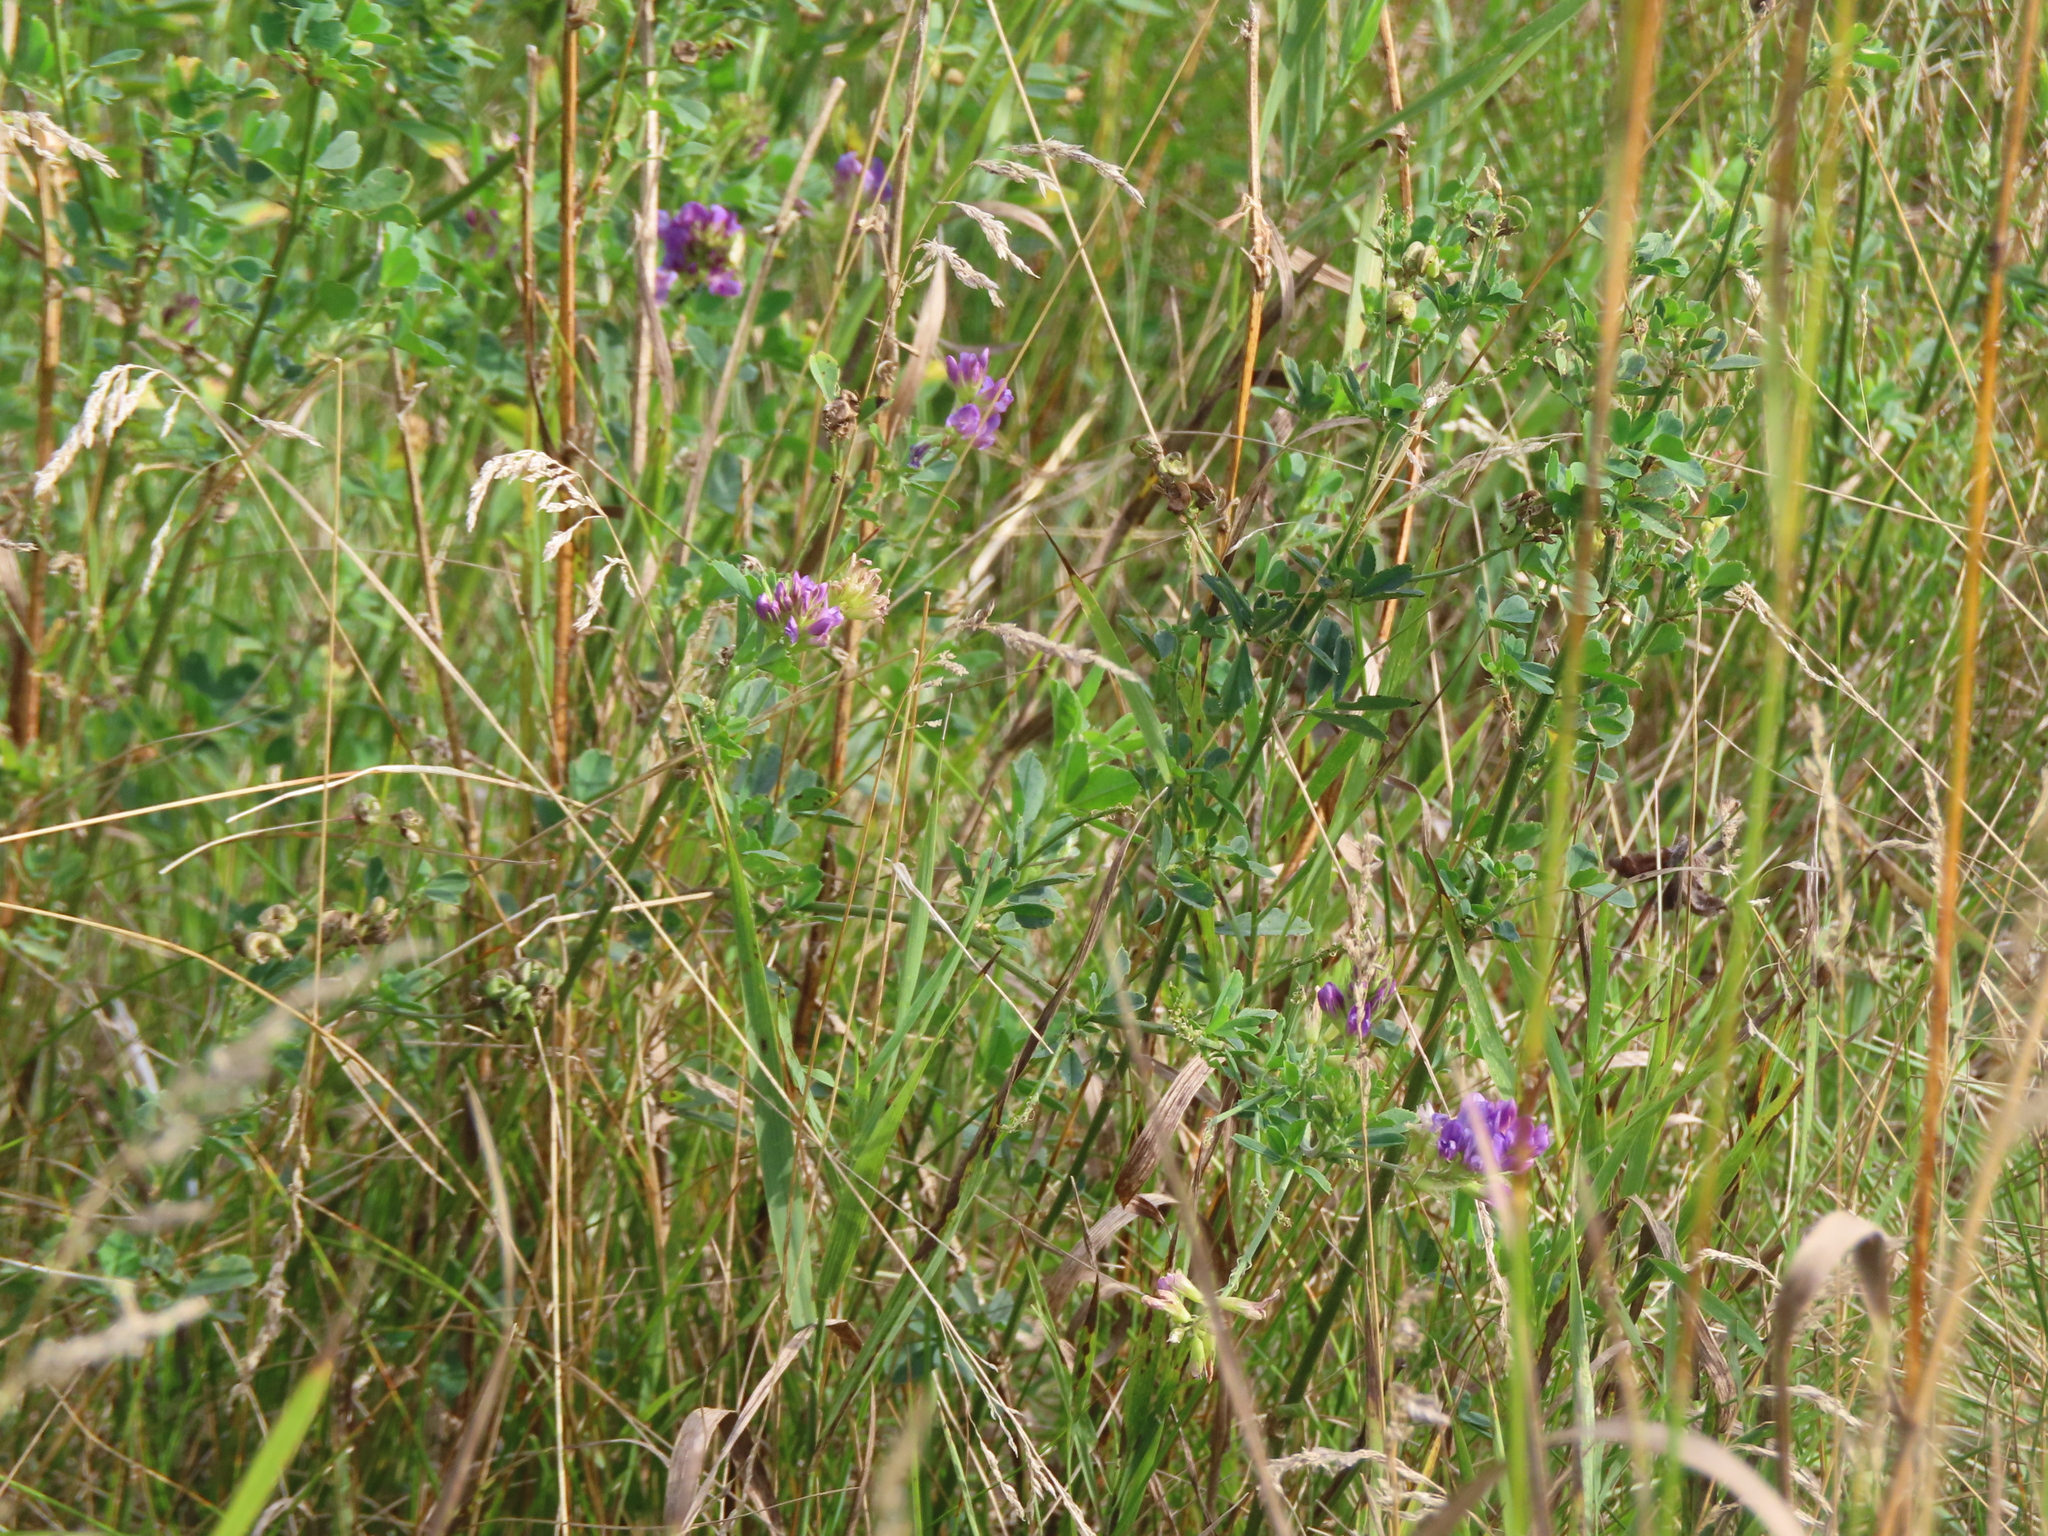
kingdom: Plantae
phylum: Tracheophyta
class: Magnoliopsida
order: Fabales
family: Fabaceae
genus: Medicago
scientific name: Medicago sativa
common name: Alfalfa
